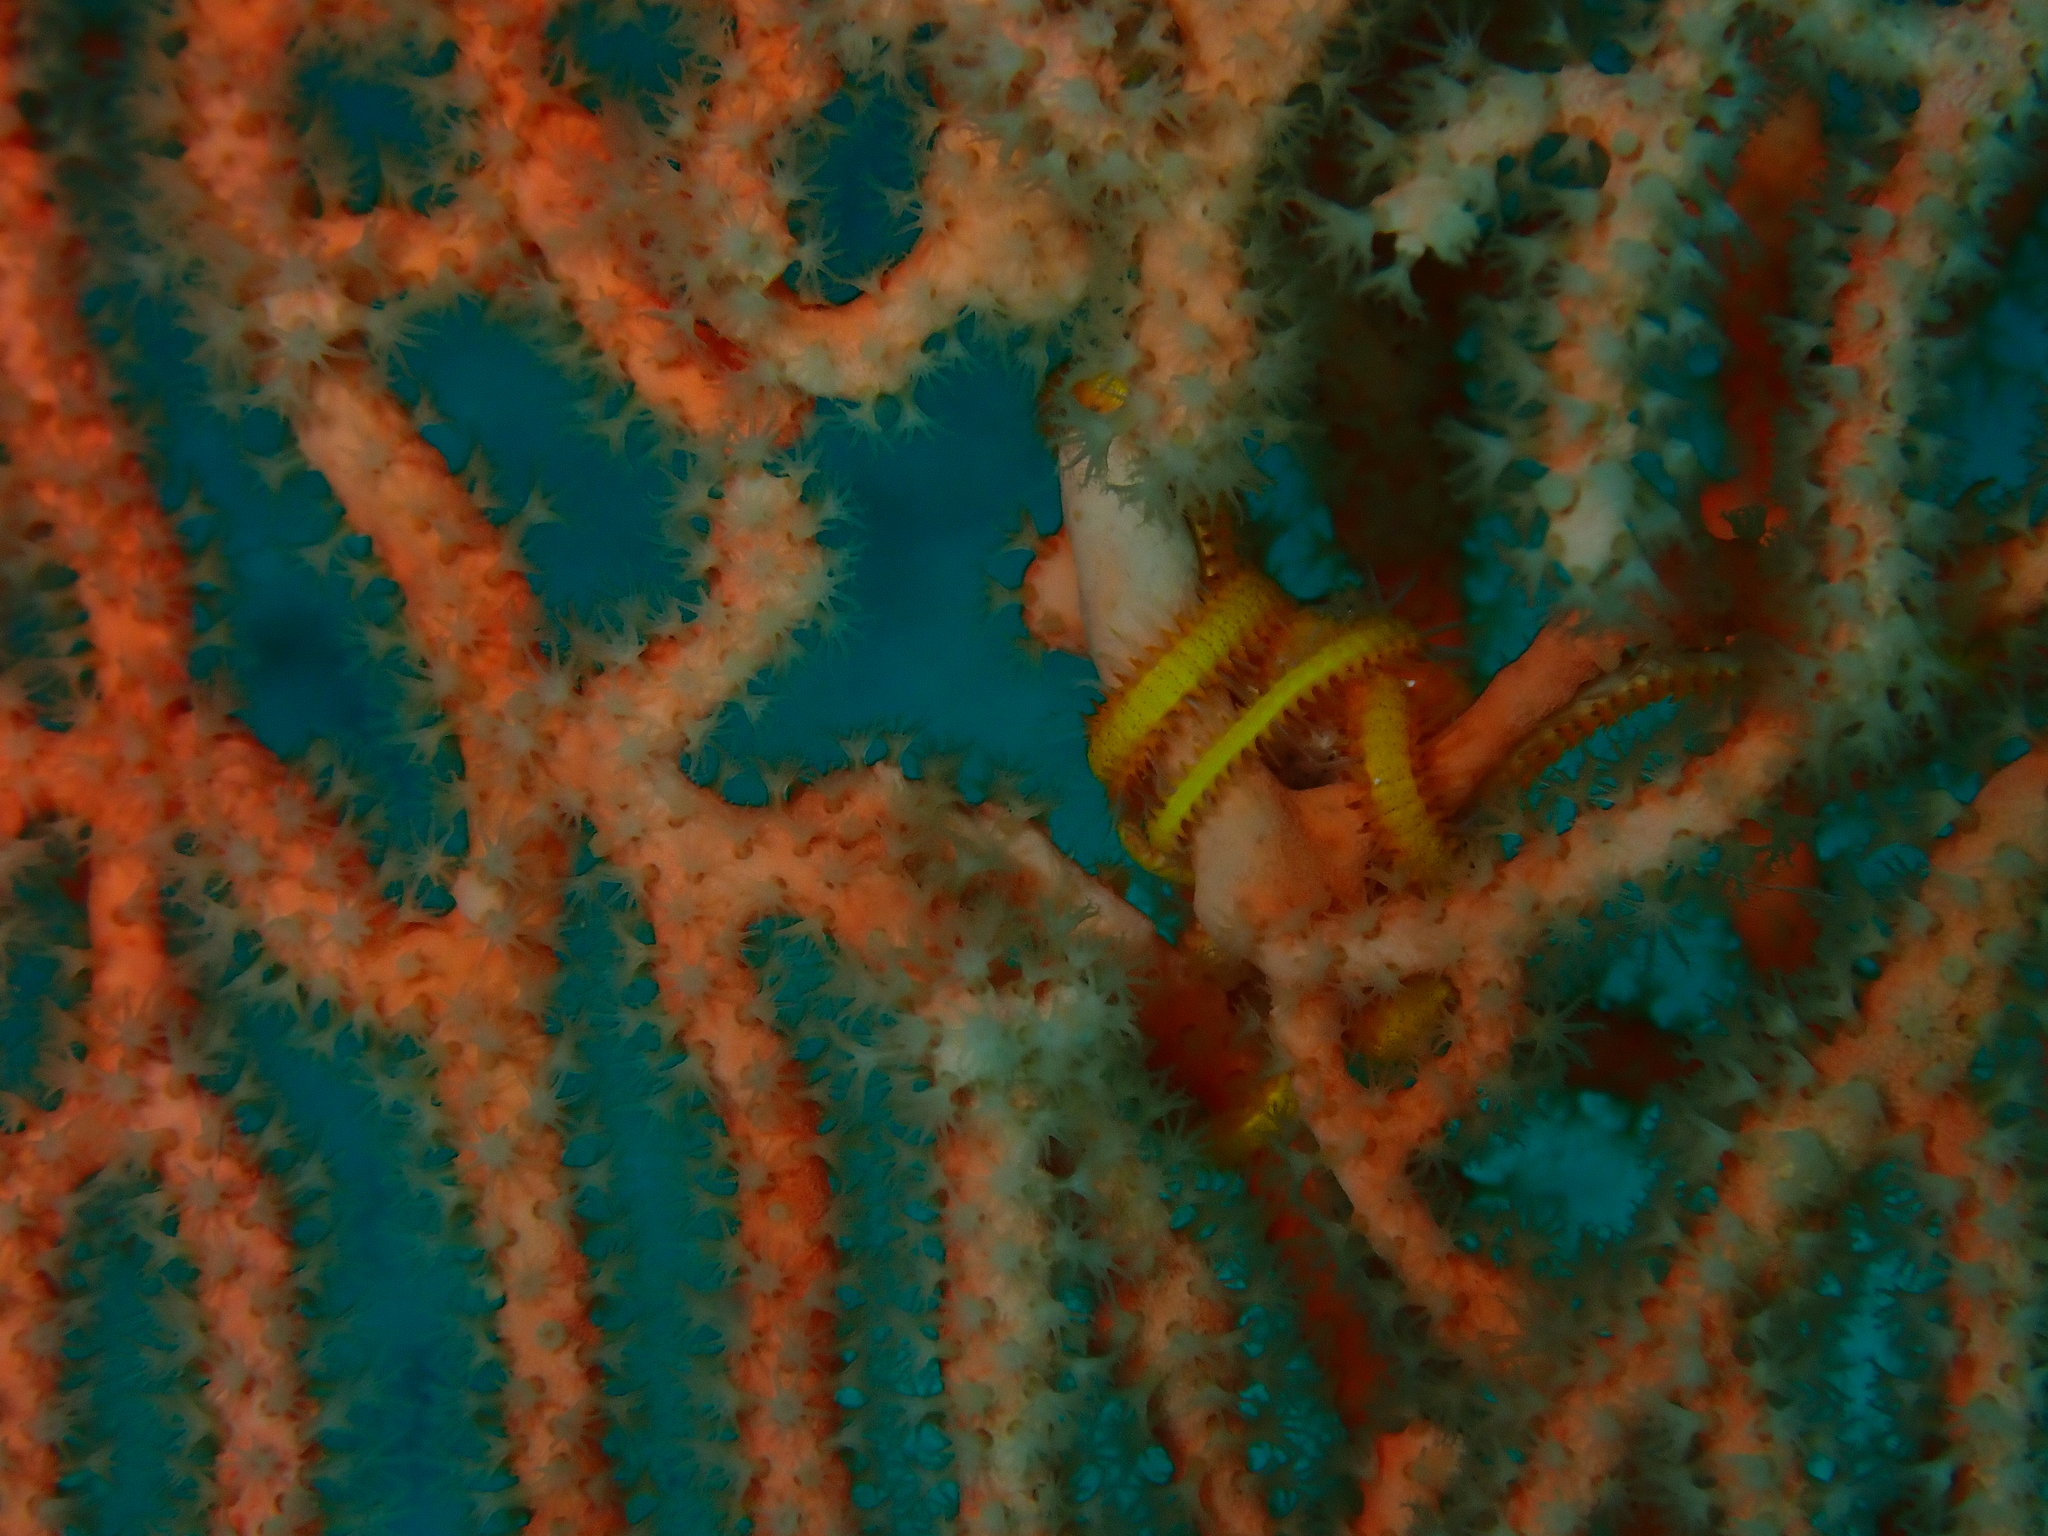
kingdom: Animalia
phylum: Cnidaria
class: Anthozoa
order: Malacalcyonacea
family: Subergorgiidae
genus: Annella
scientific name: Annella mollis
